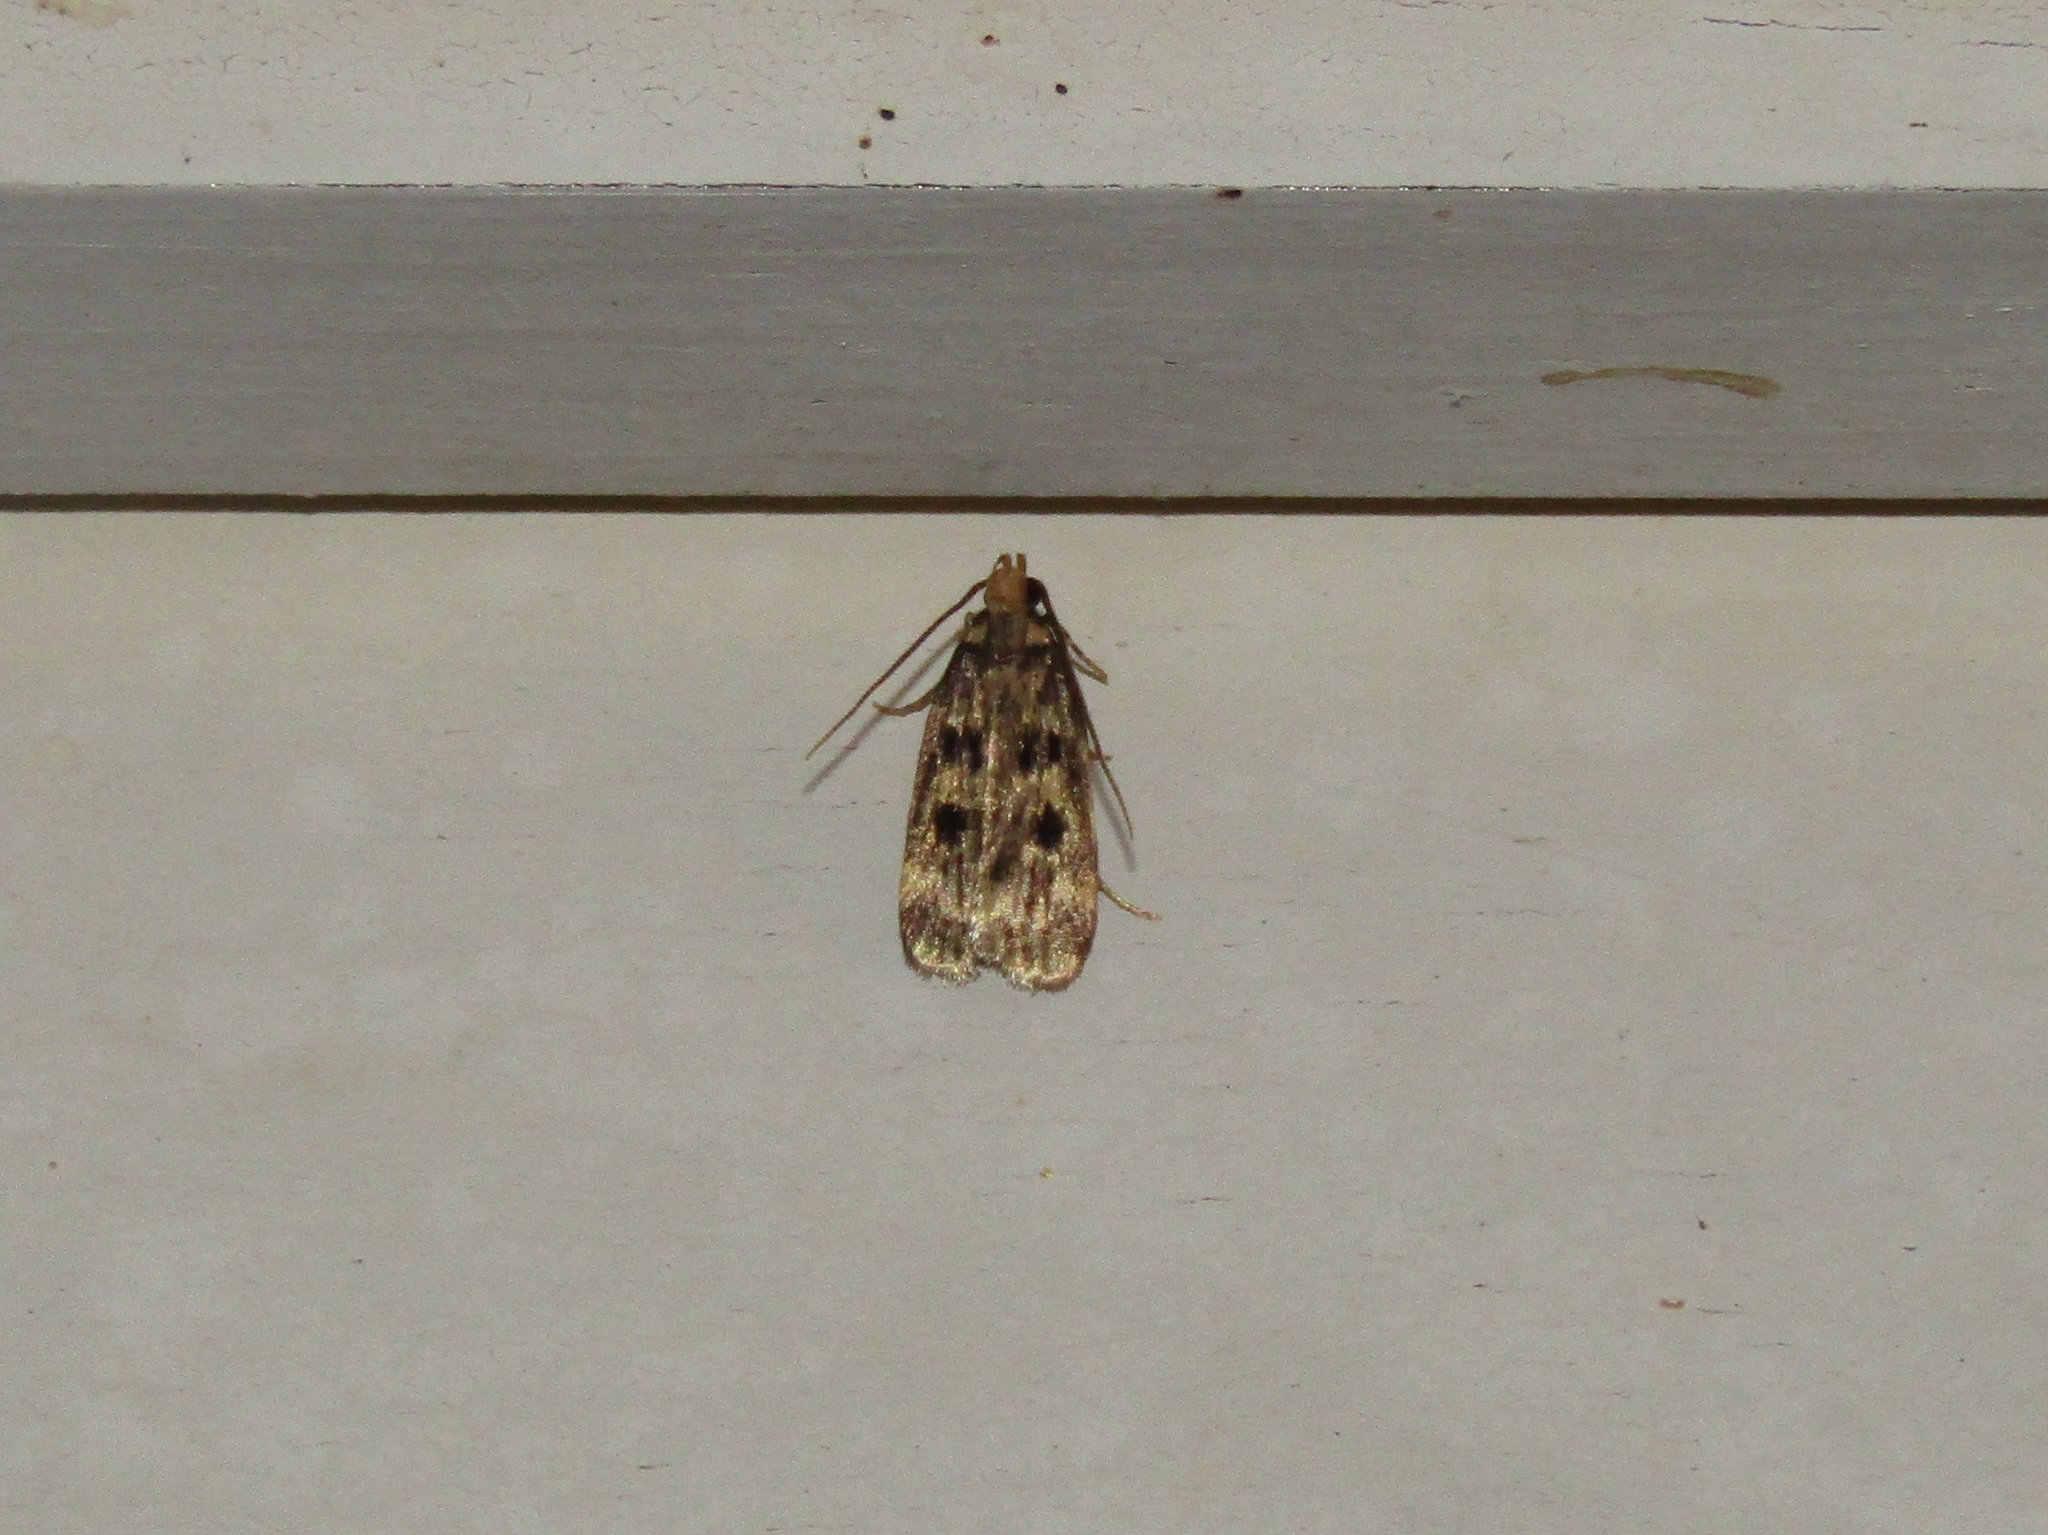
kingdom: Animalia
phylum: Arthropoda
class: Insecta
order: Lepidoptera
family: Lecithoceridae
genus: Martyringa
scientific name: Martyringa latipennis
